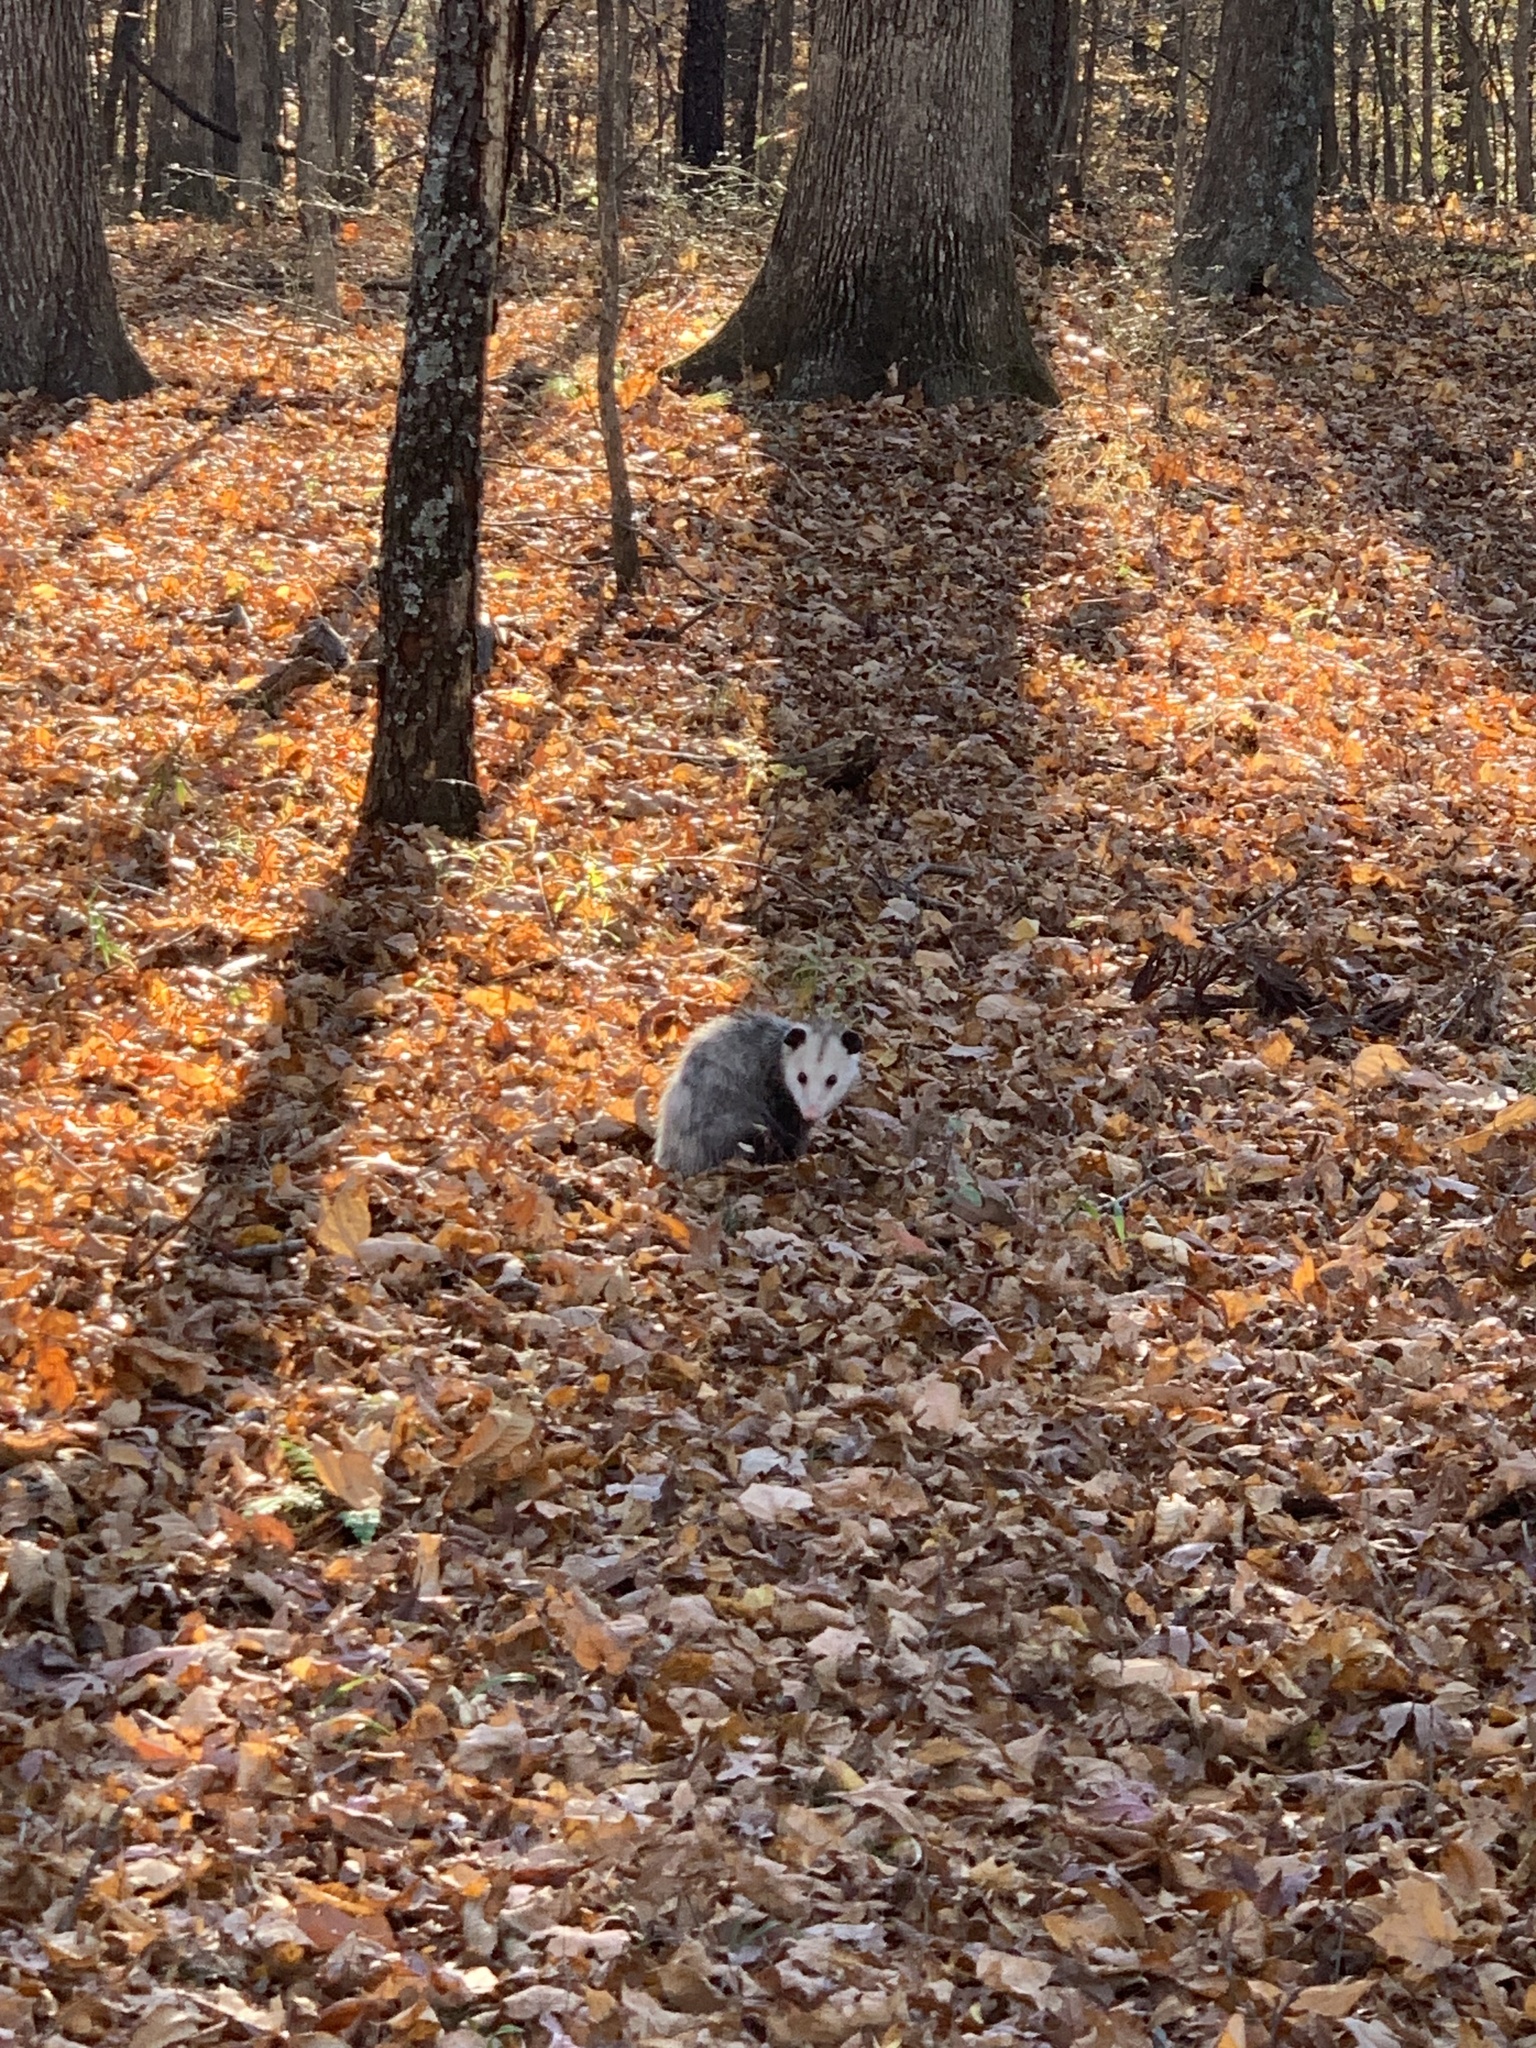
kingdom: Animalia
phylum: Chordata
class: Mammalia
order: Didelphimorphia
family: Didelphidae
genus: Didelphis
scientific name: Didelphis virginiana
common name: Virginia opossum
